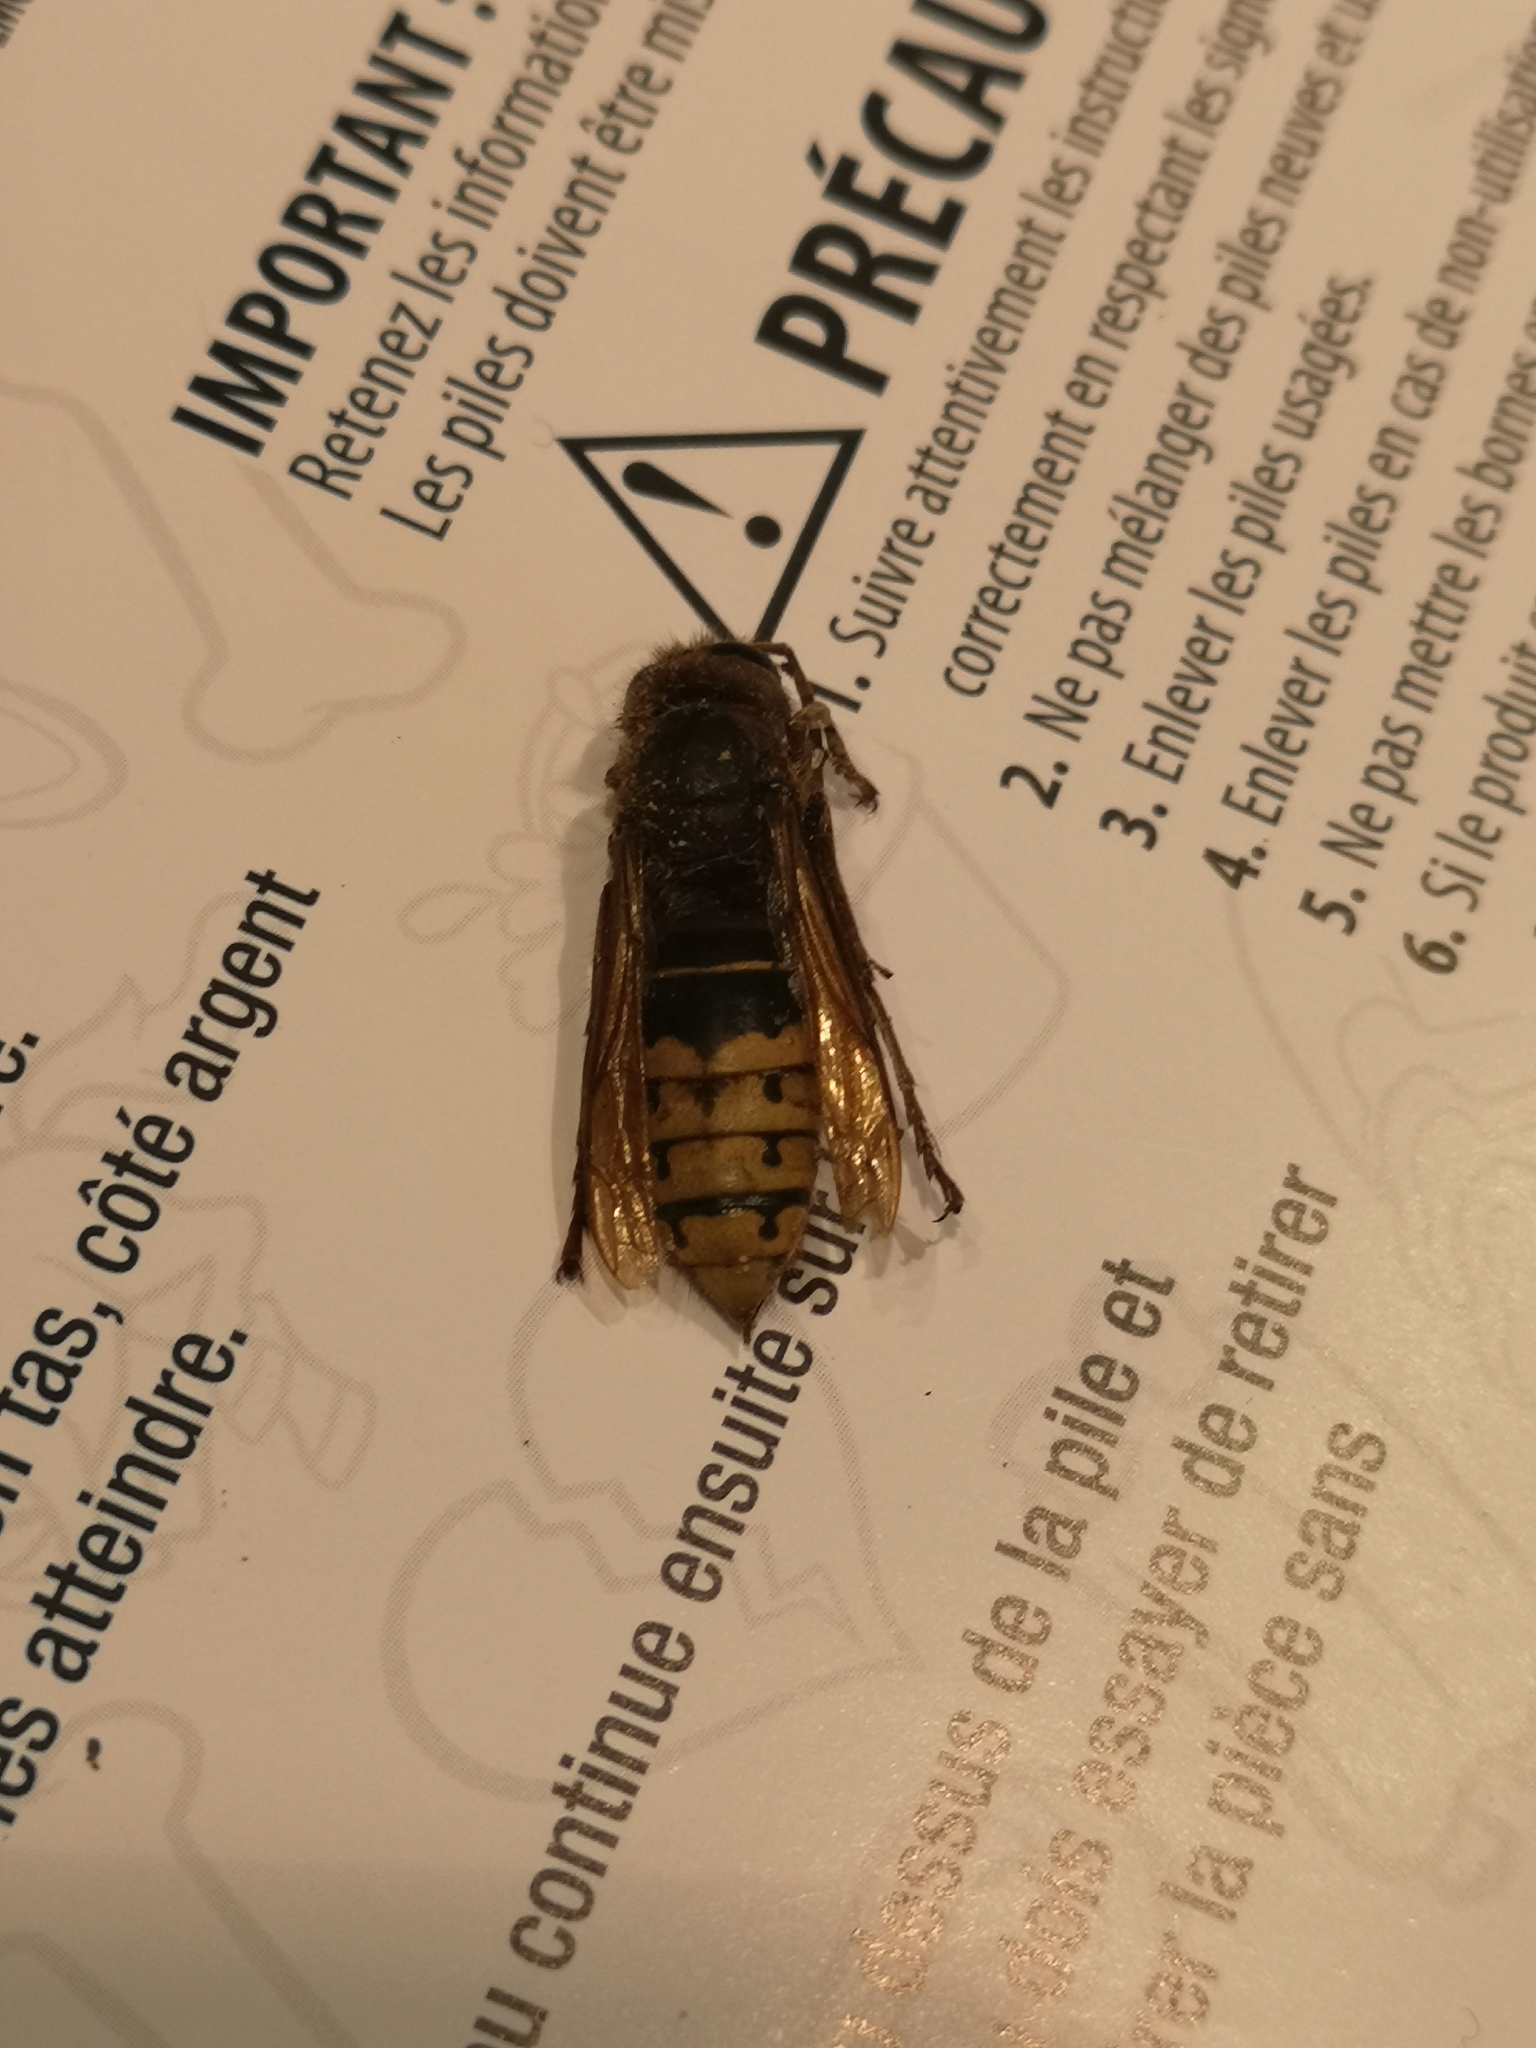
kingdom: Animalia
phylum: Arthropoda
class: Insecta
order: Hymenoptera
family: Vespidae
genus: Vespa
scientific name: Vespa crabro
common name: Hornet
